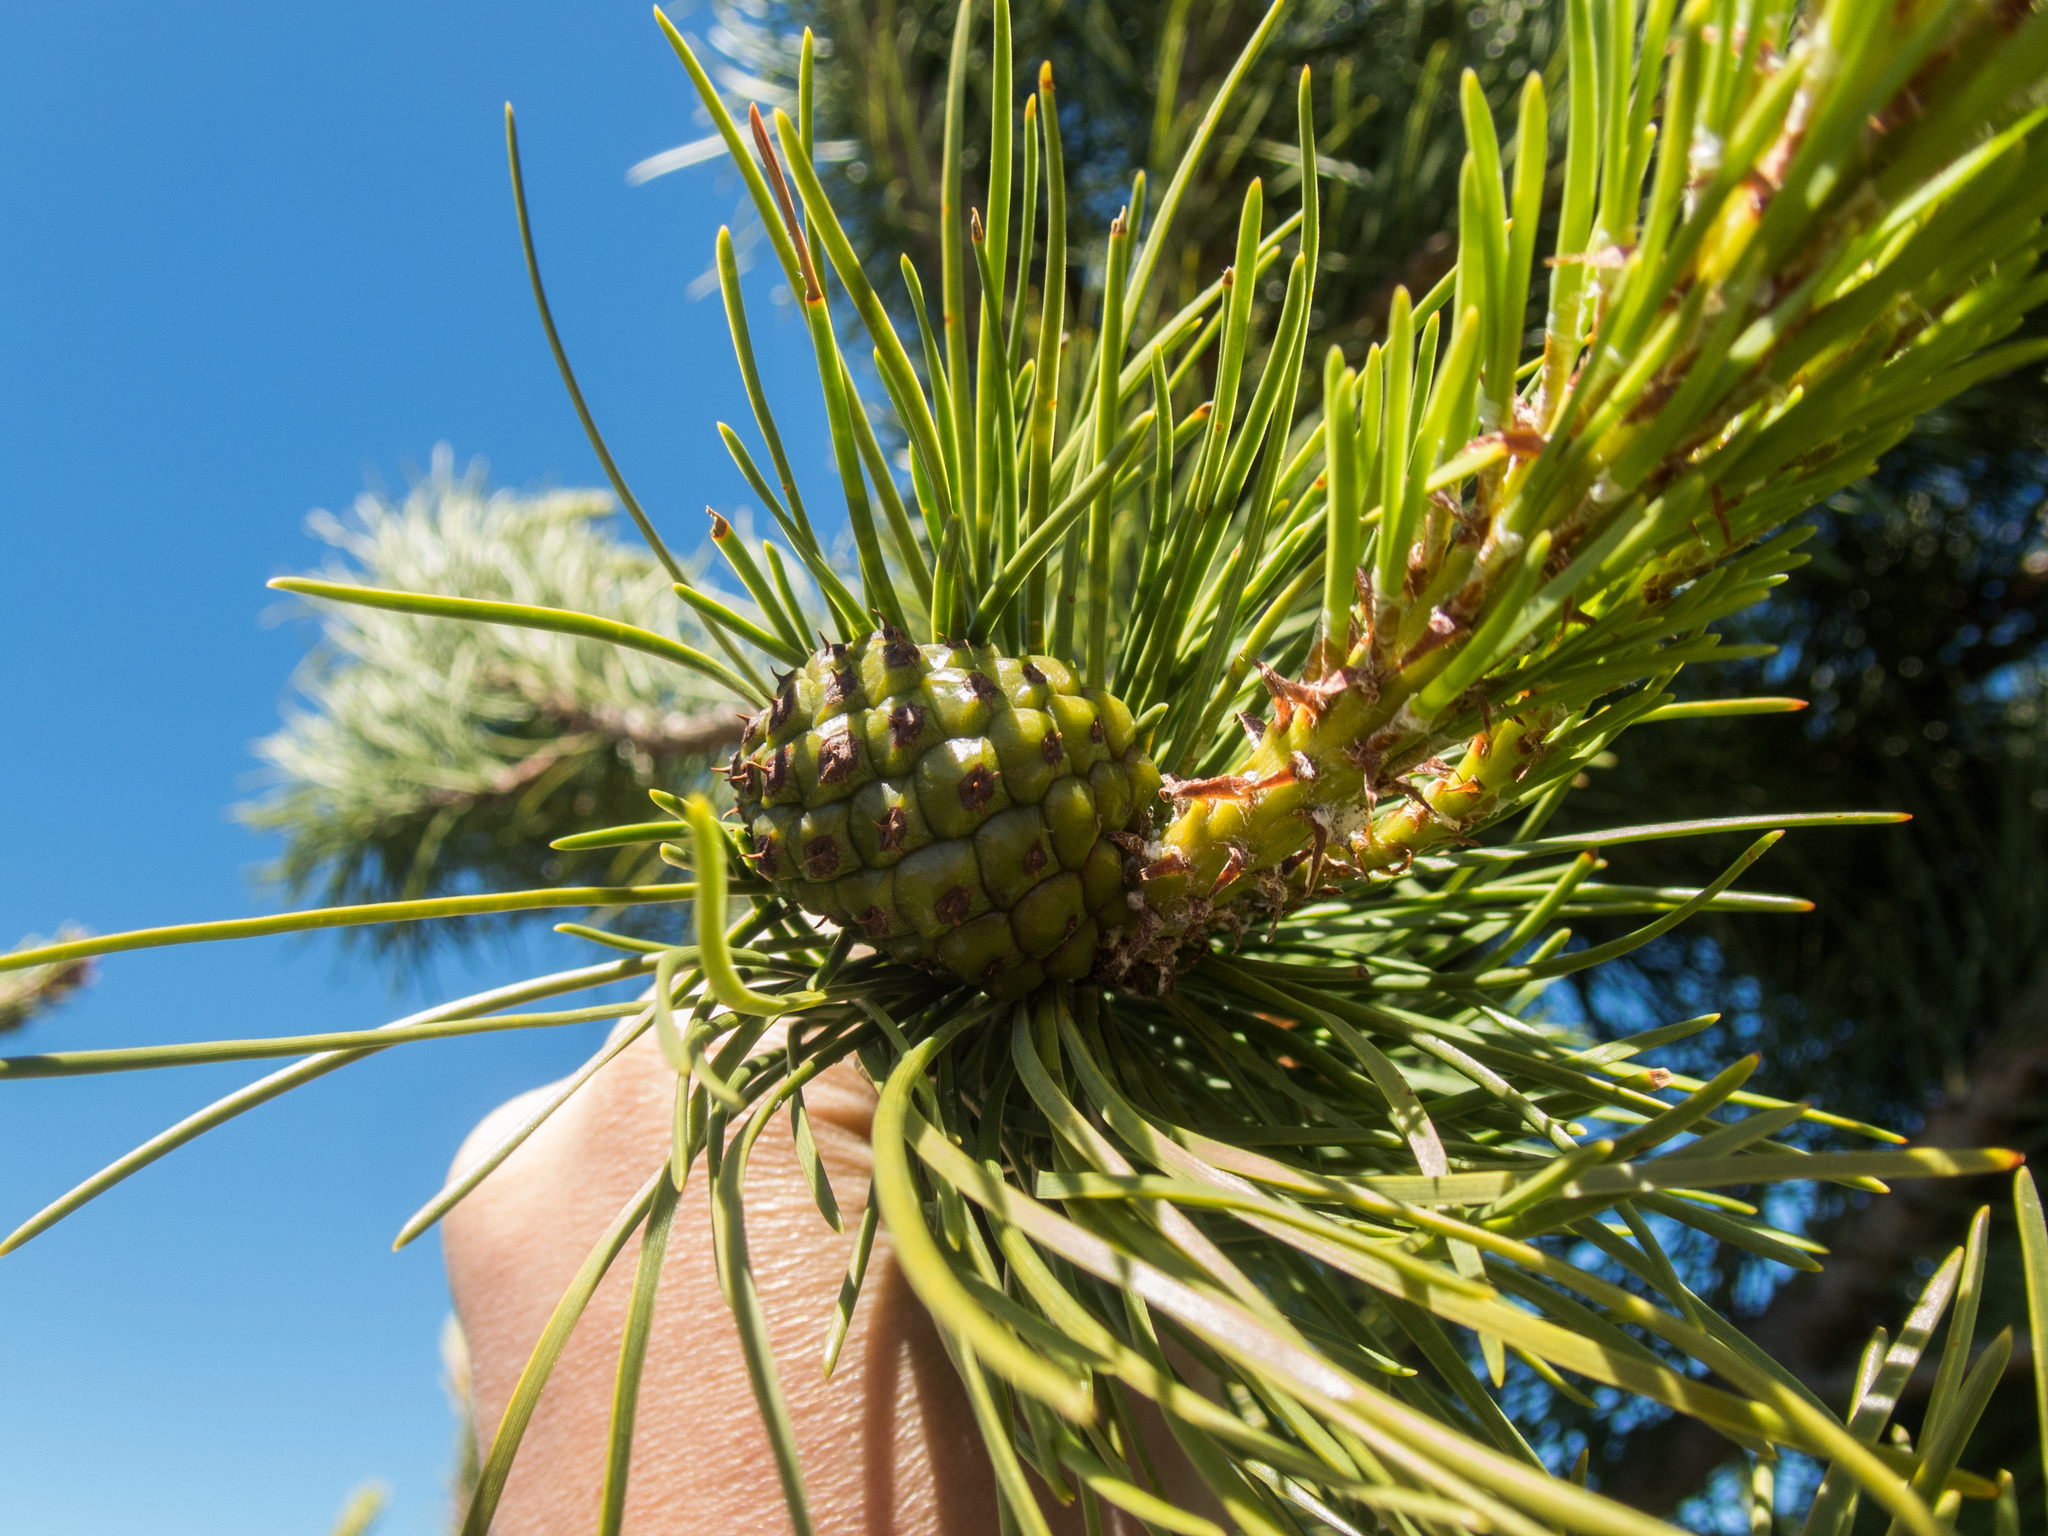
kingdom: Plantae
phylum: Tracheophyta
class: Pinopsida
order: Pinales
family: Pinaceae
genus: Pinus
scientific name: Pinus contorta
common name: Lodgepole pine
